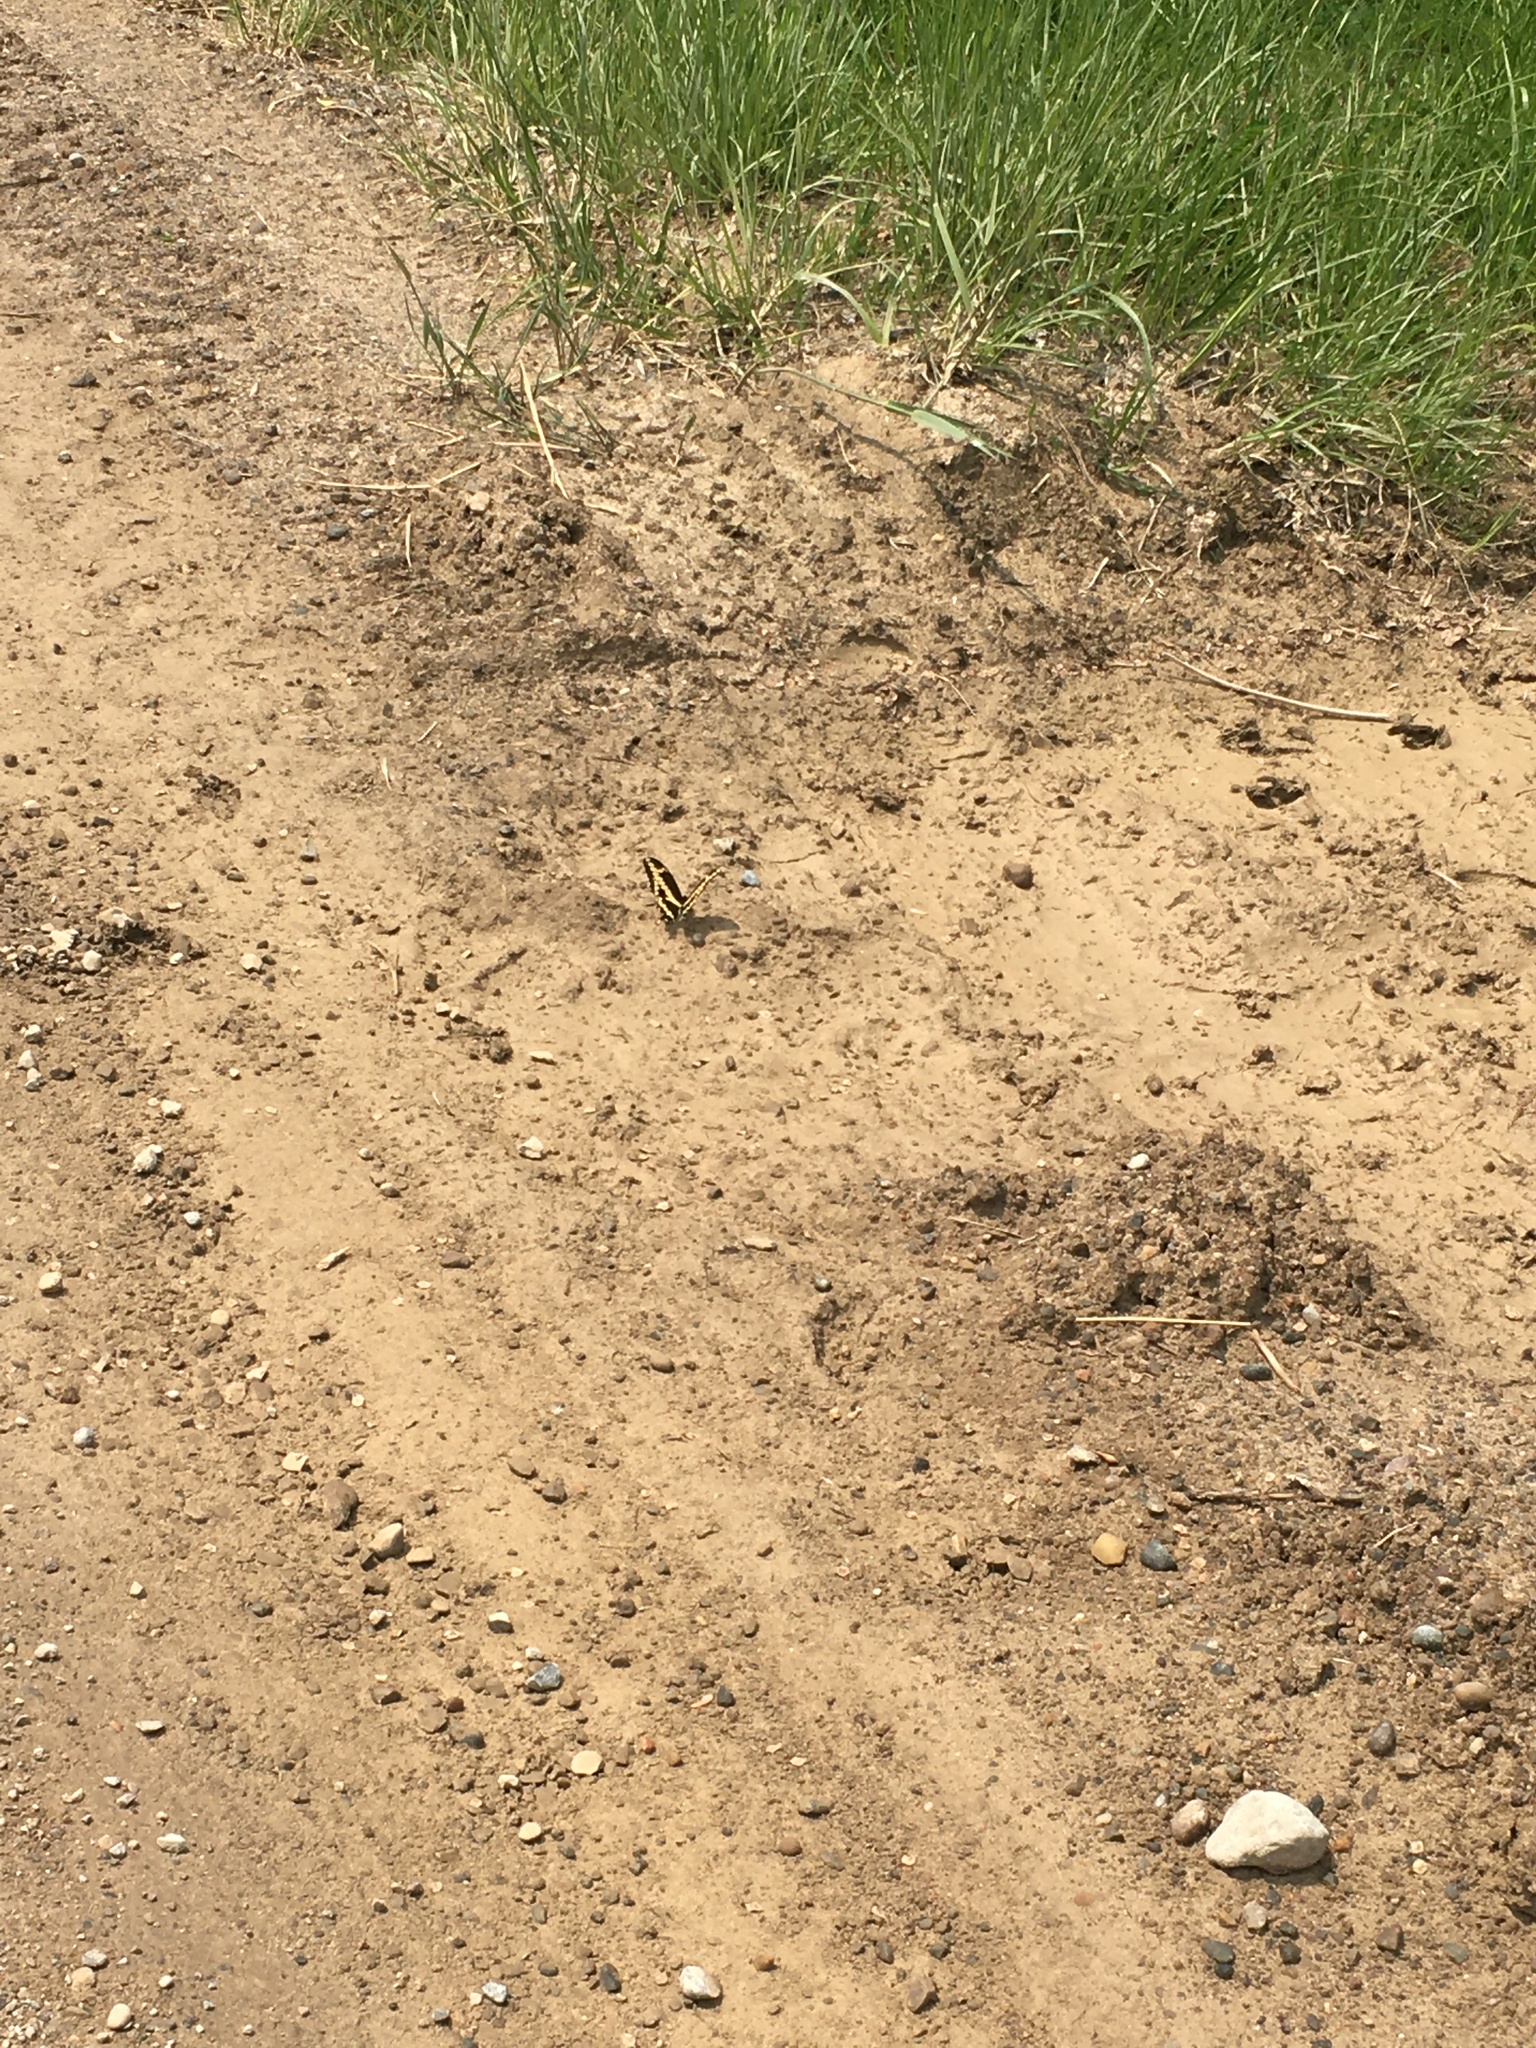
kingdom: Animalia
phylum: Arthropoda
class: Insecta
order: Lepidoptera
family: Papilionidae
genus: Papilio
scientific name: Papilio cresphontes
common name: Giant swallowtail
